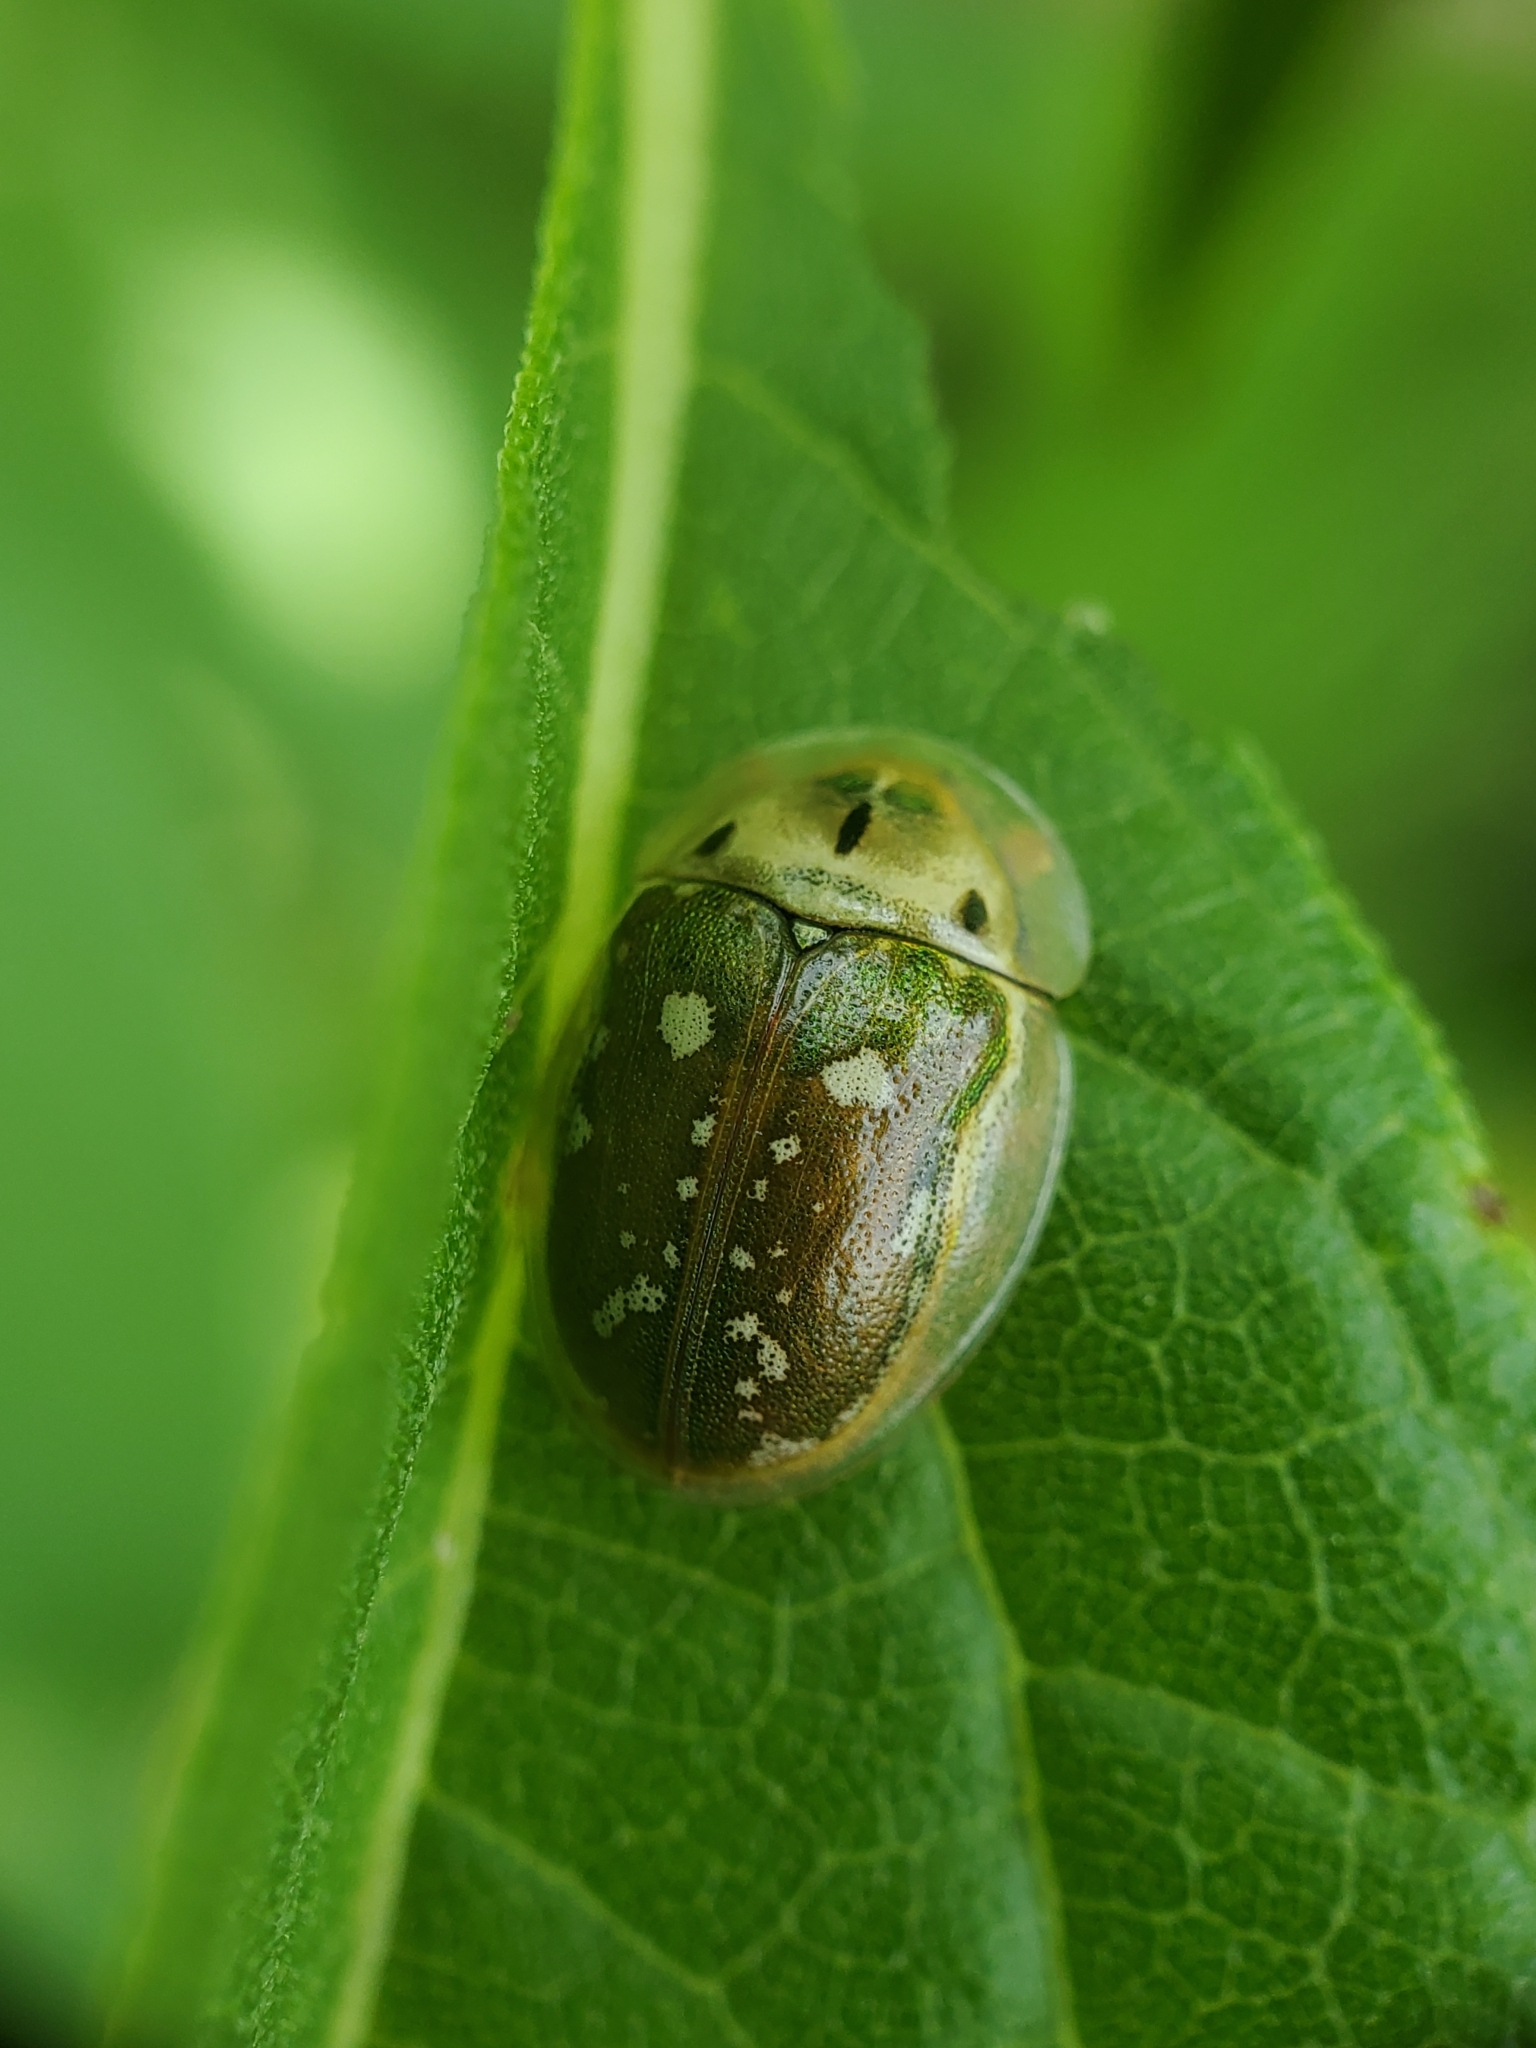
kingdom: Animalia
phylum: Arthropoda
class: Insecta
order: Coleoptera
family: Chrysomelidae
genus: Charidotella
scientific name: Charidotella sexpunctata
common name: Golden tortoise beetle
